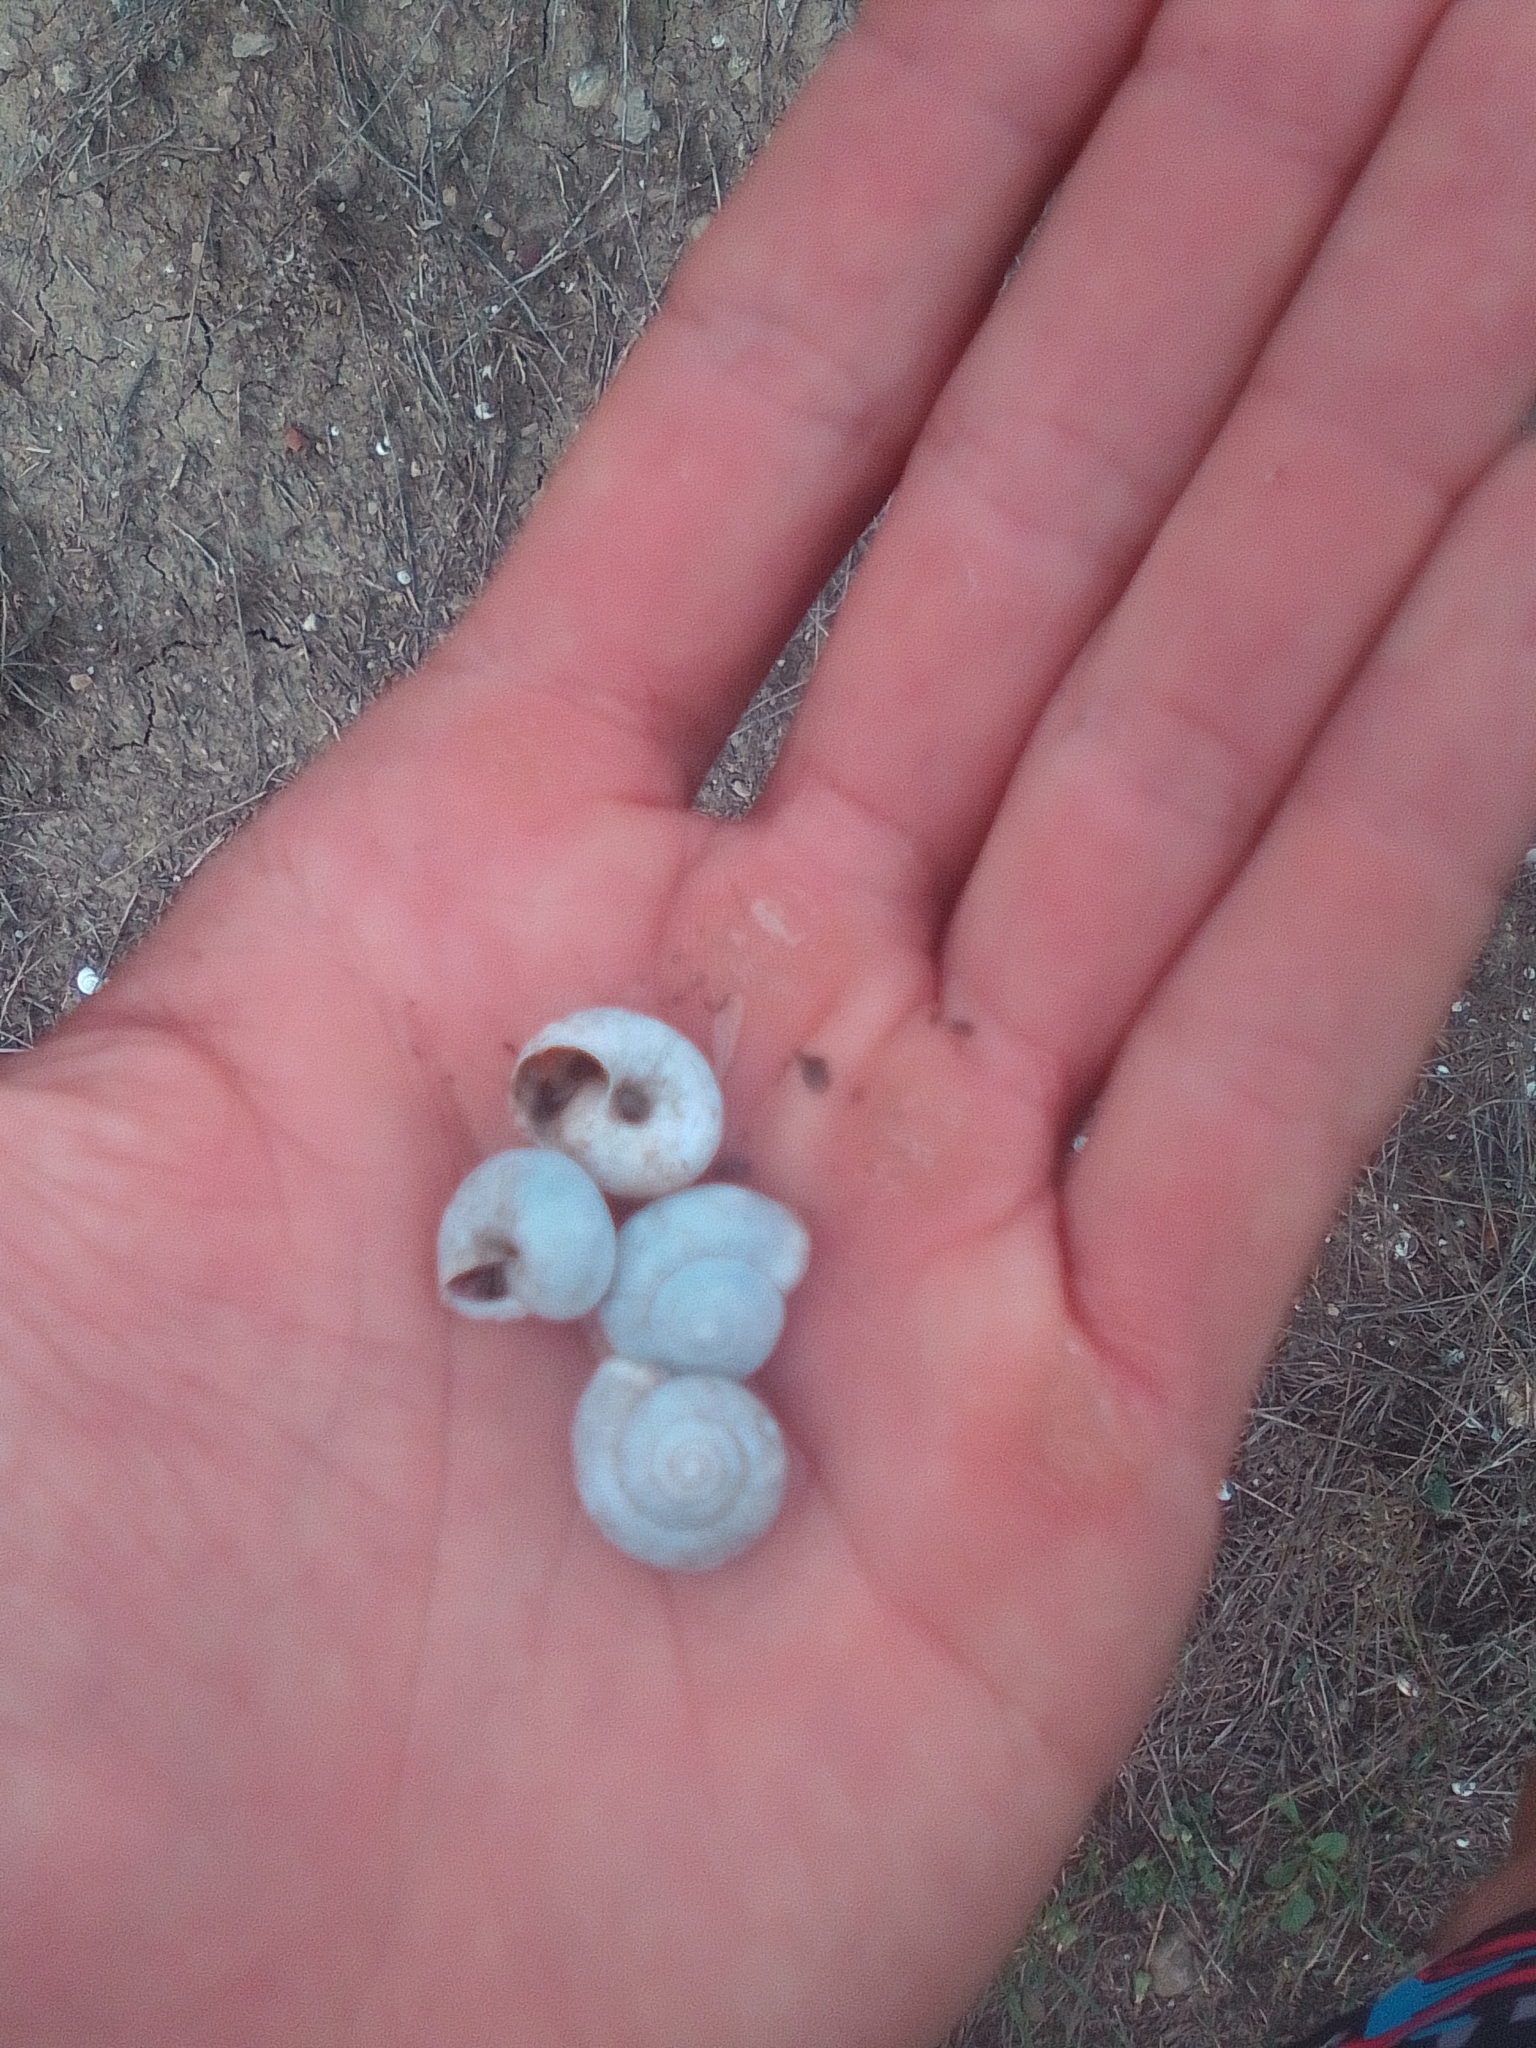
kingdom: Animalia
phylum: Mollusca
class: Gastropoda
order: Stylommatophora
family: Hygromiidae
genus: Monacha
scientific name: Monacha fruticola
